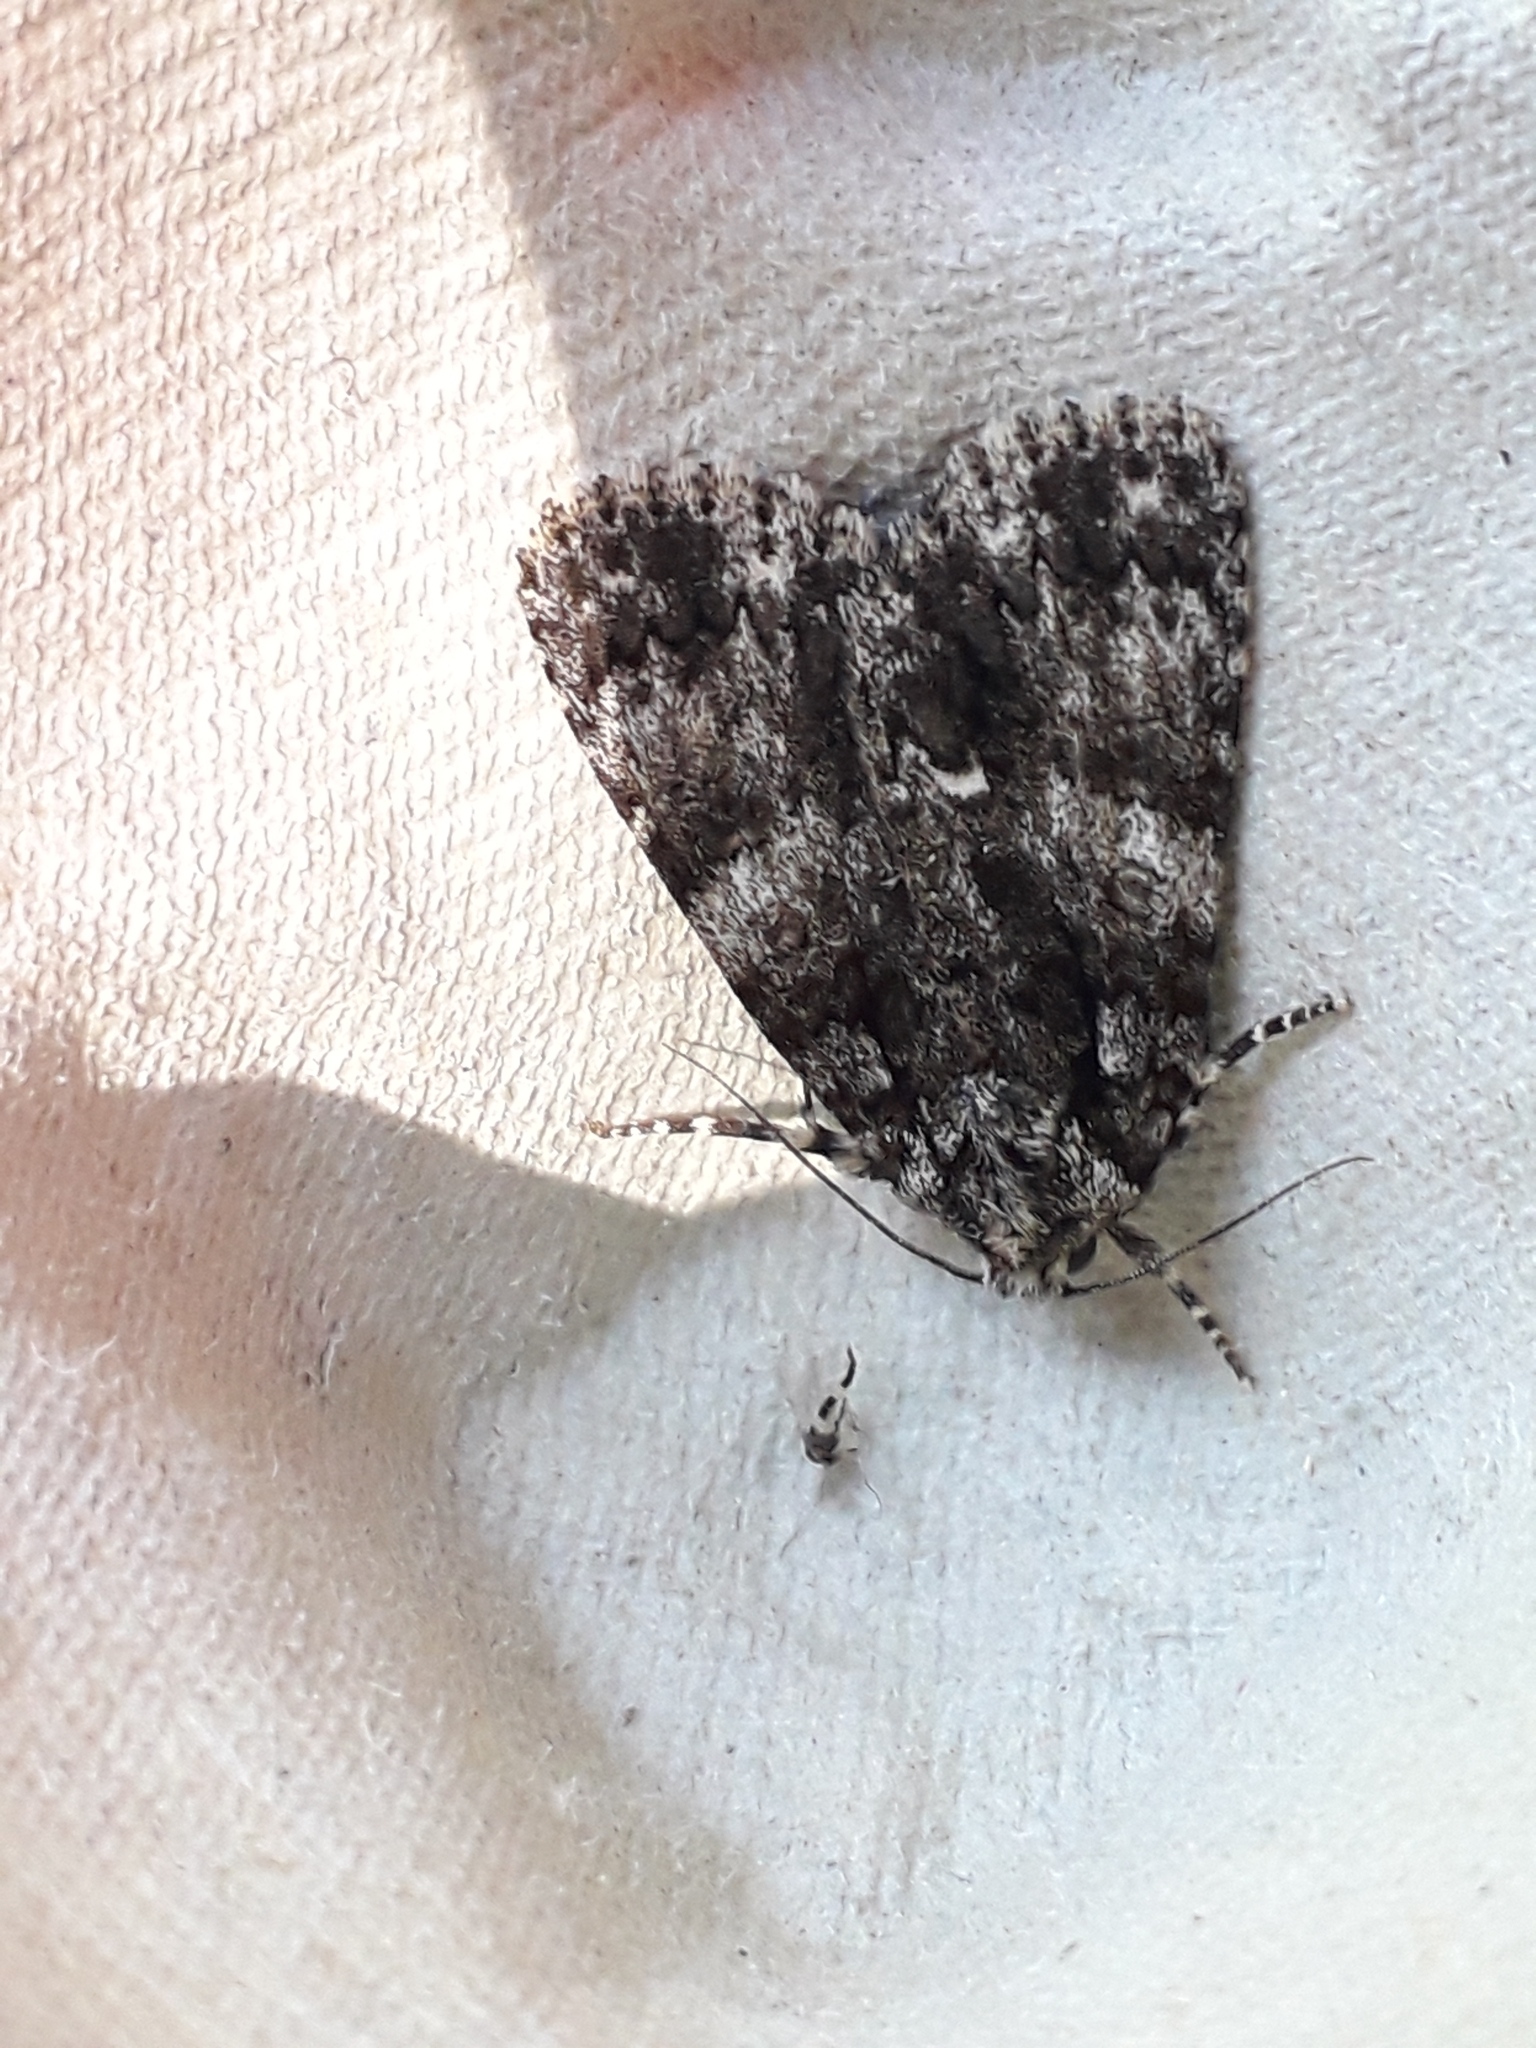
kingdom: Animalia
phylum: Arthropoda
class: Insecta
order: Lepidoptera
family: Noctuidae
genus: Acronicta
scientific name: Acronicta rumicis
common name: Knot grass
